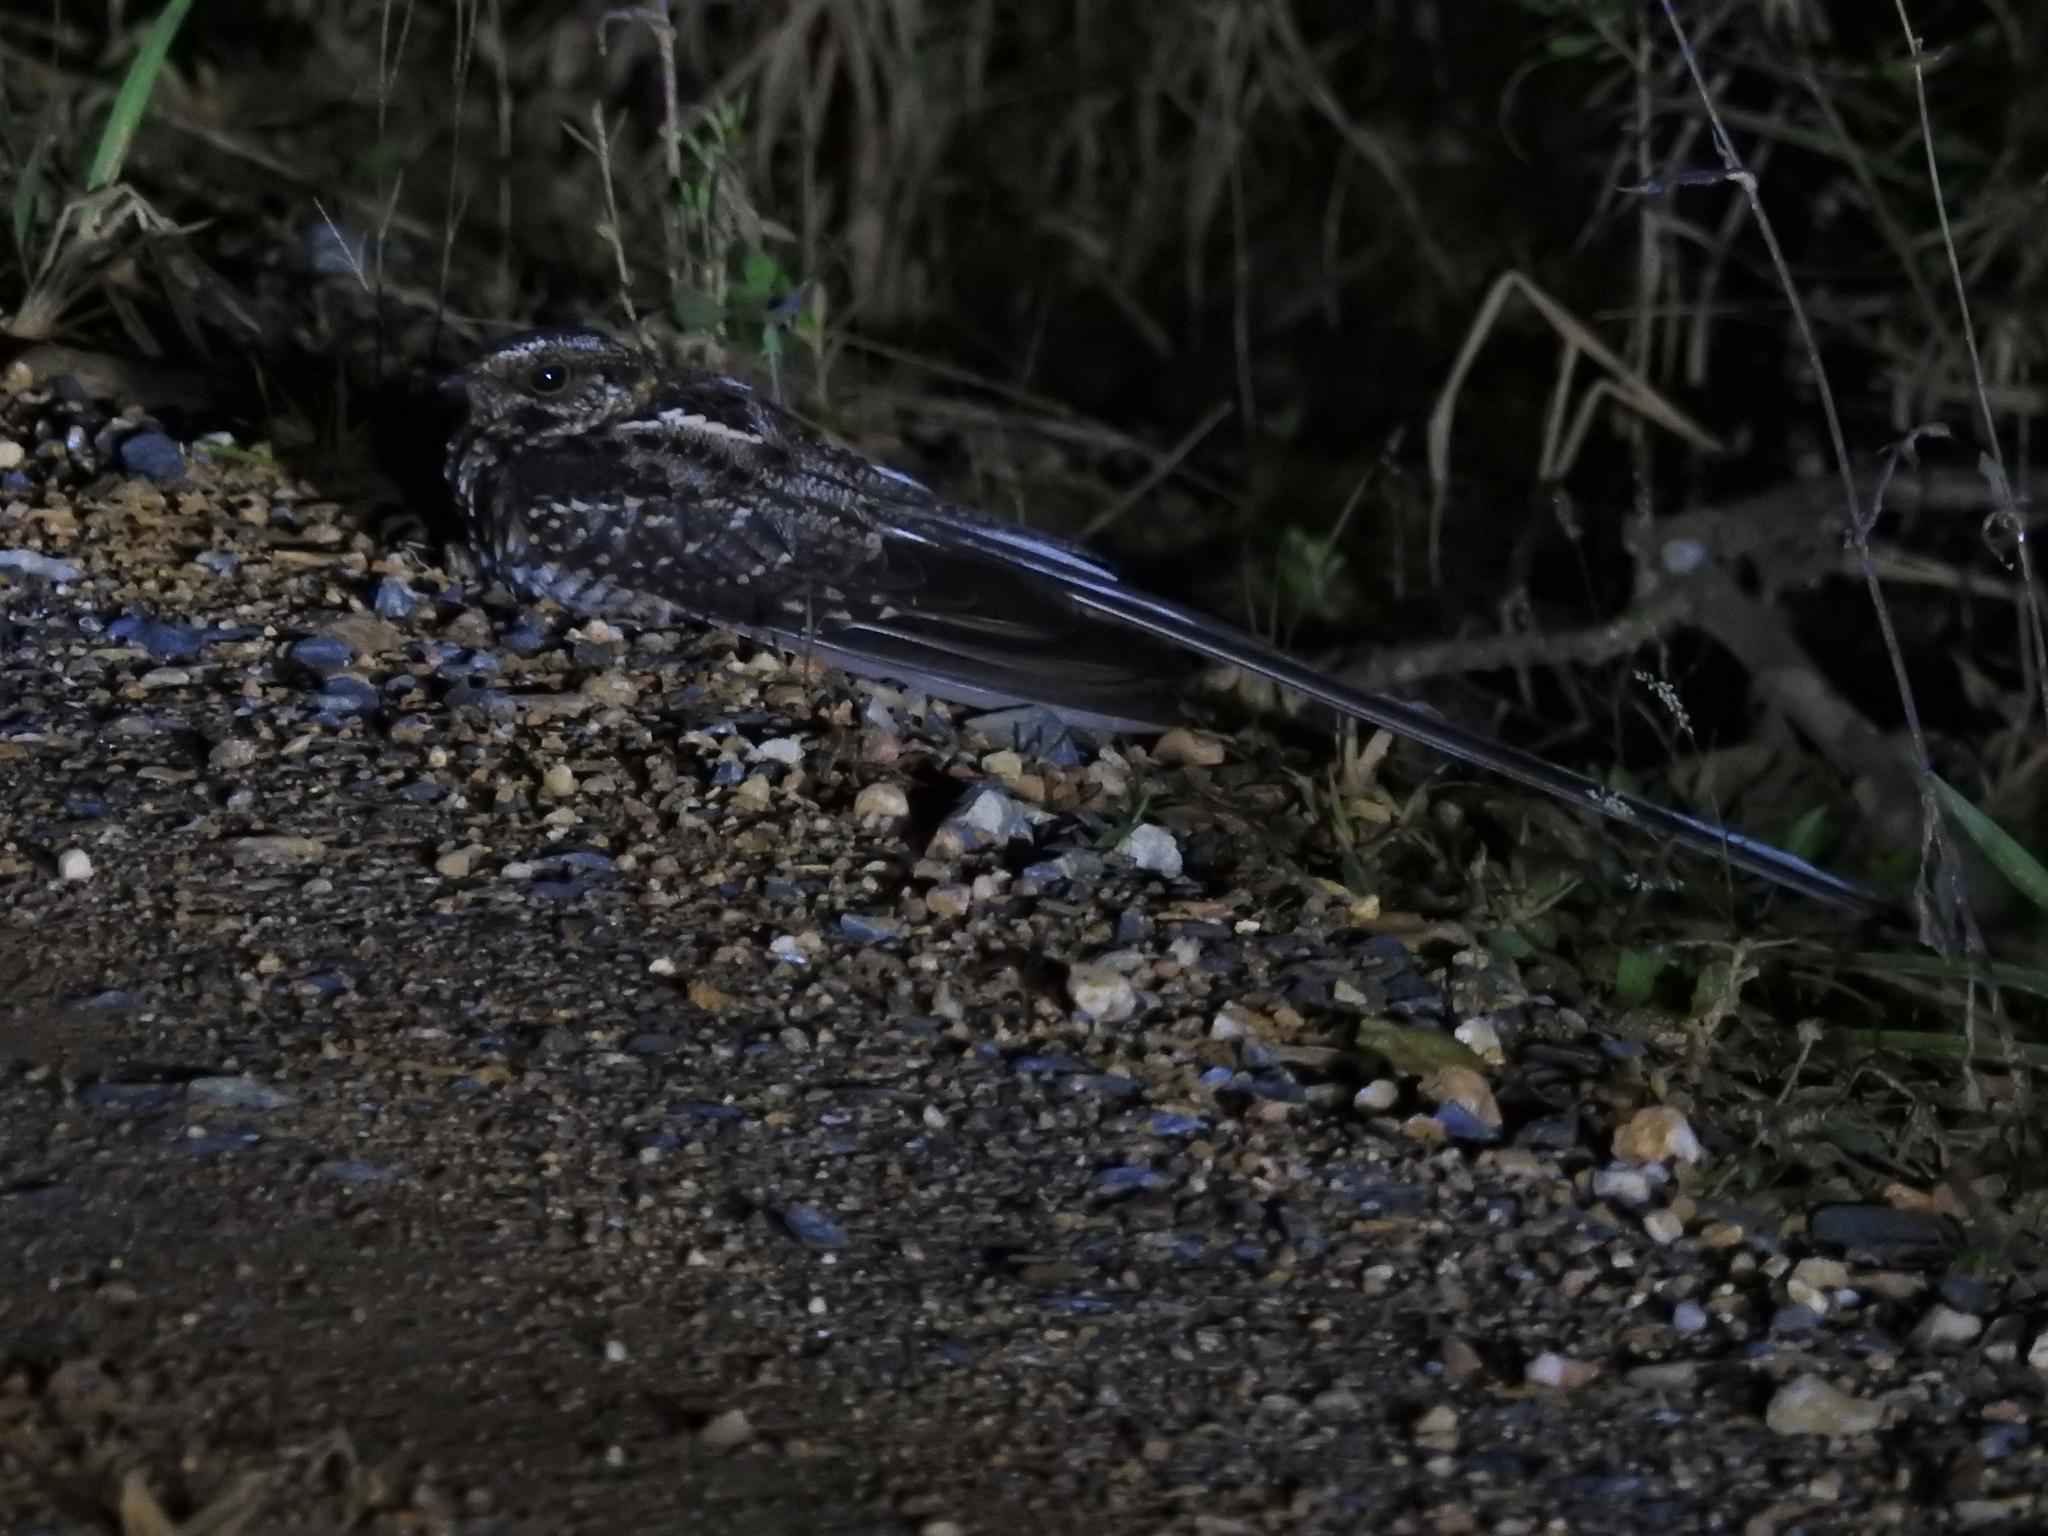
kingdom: Animalia
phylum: Chordata
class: Aves
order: Caprimulgiformes
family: Caprimulgidae
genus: Macropsalis
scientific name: Macropsalis forcipata
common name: Long-trained nightjar
